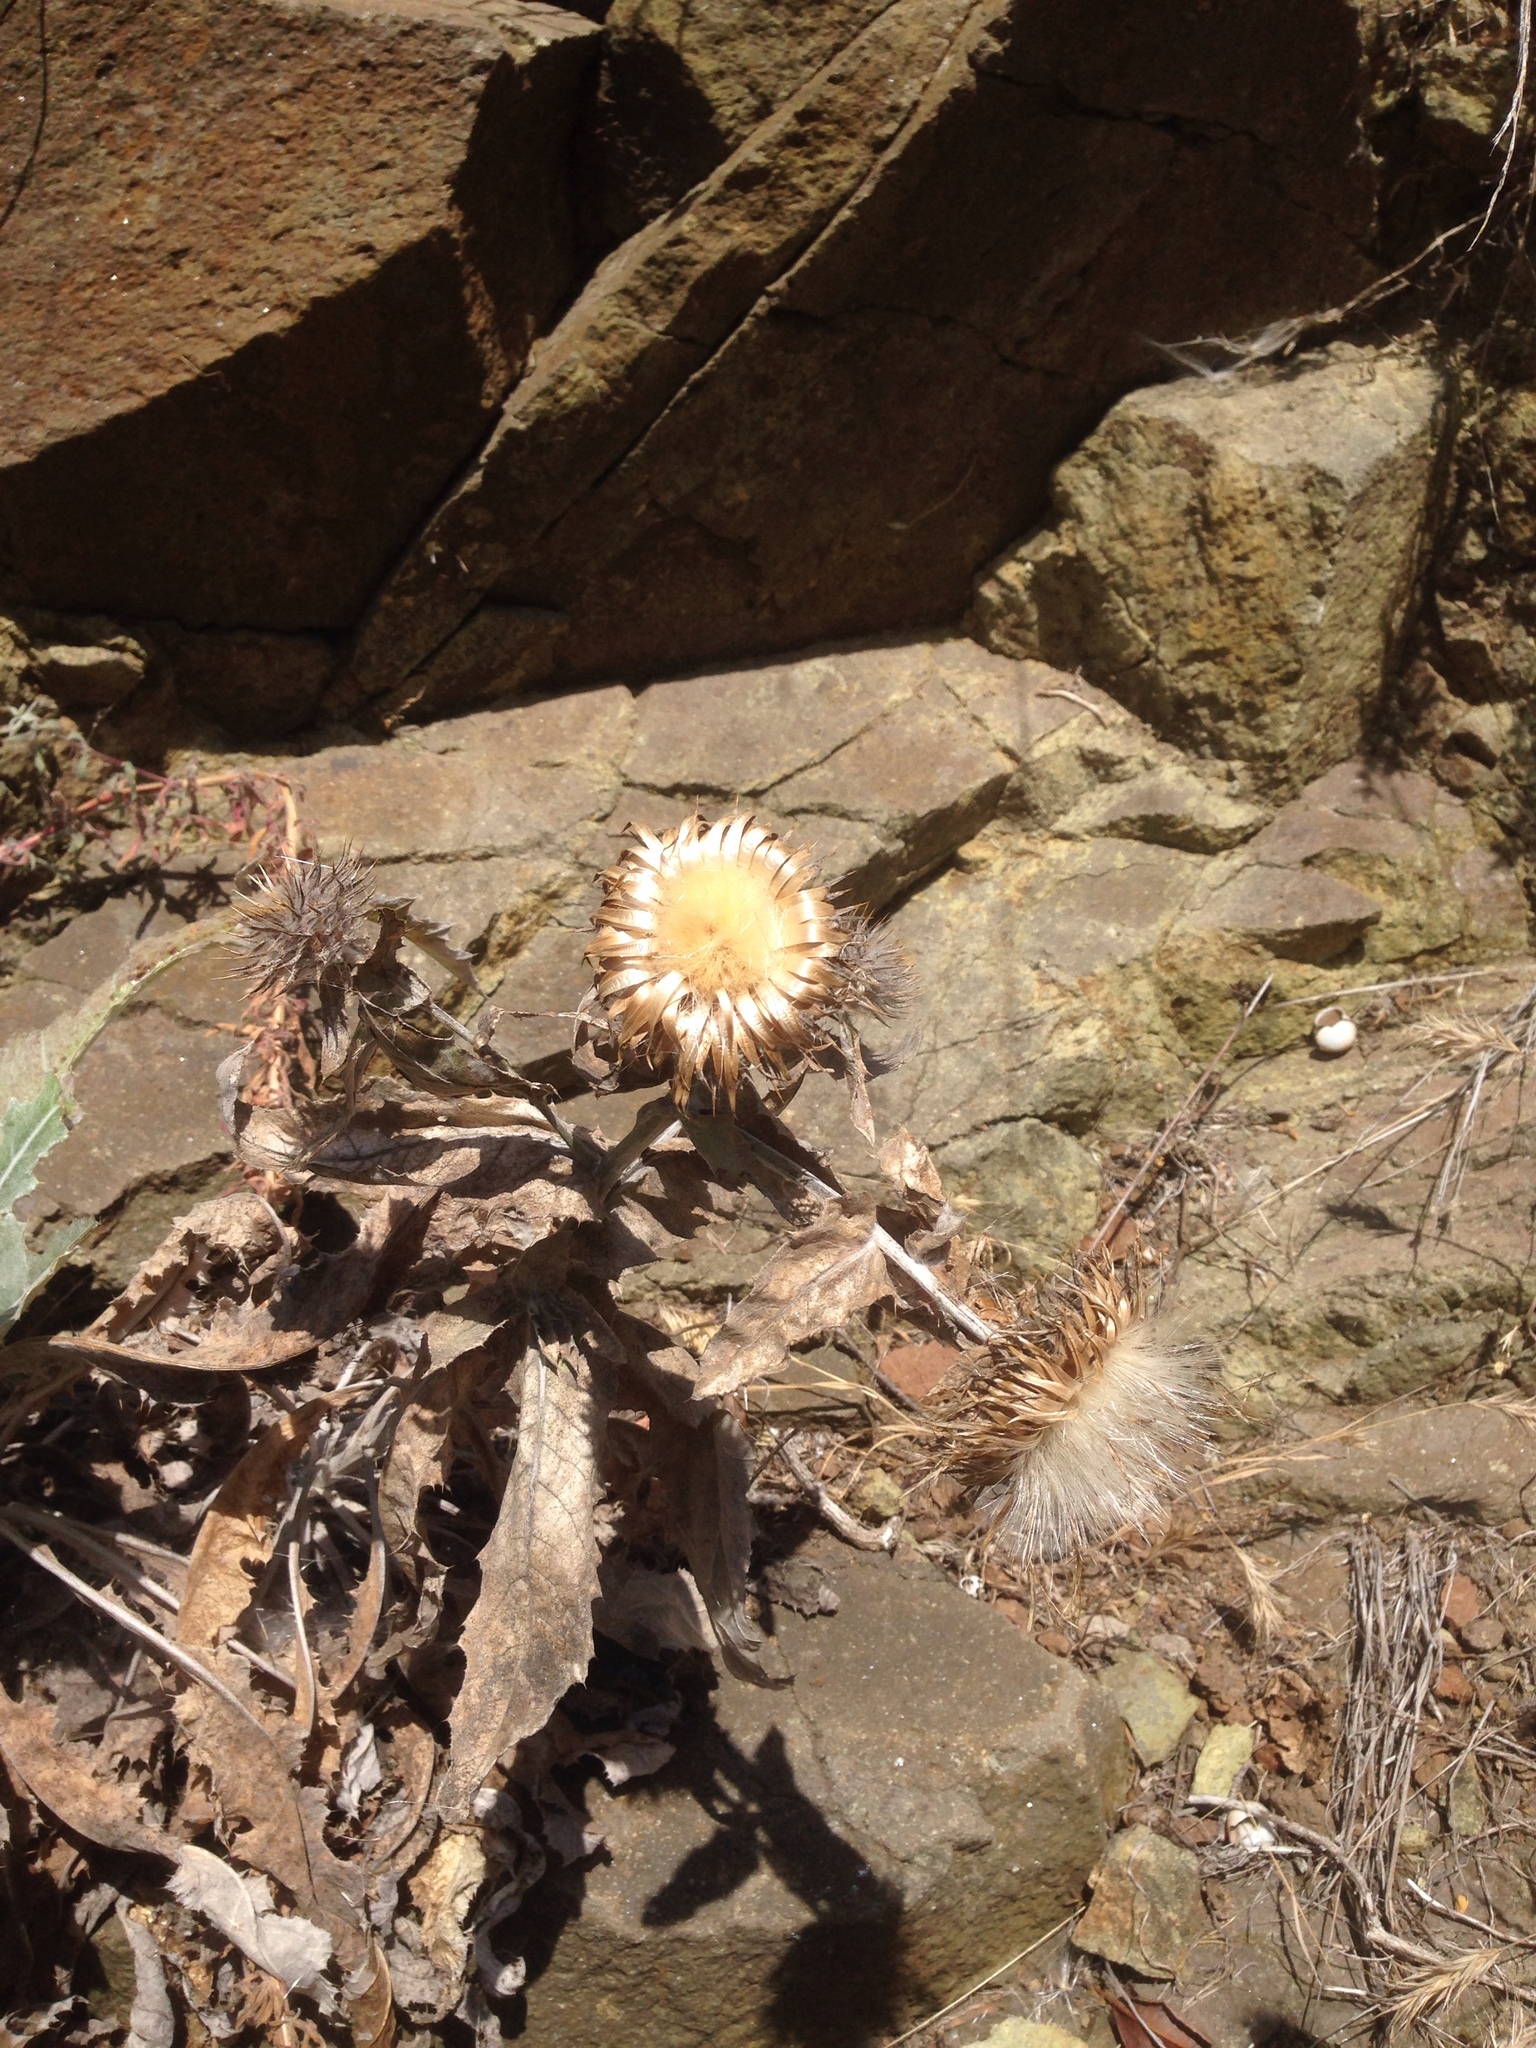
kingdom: Plantae
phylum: Tracheophyta
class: Magnoliopsida
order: Asterales
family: Asteraceae
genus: Cirsium
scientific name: Cirsium occidentale
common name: Western thistle
